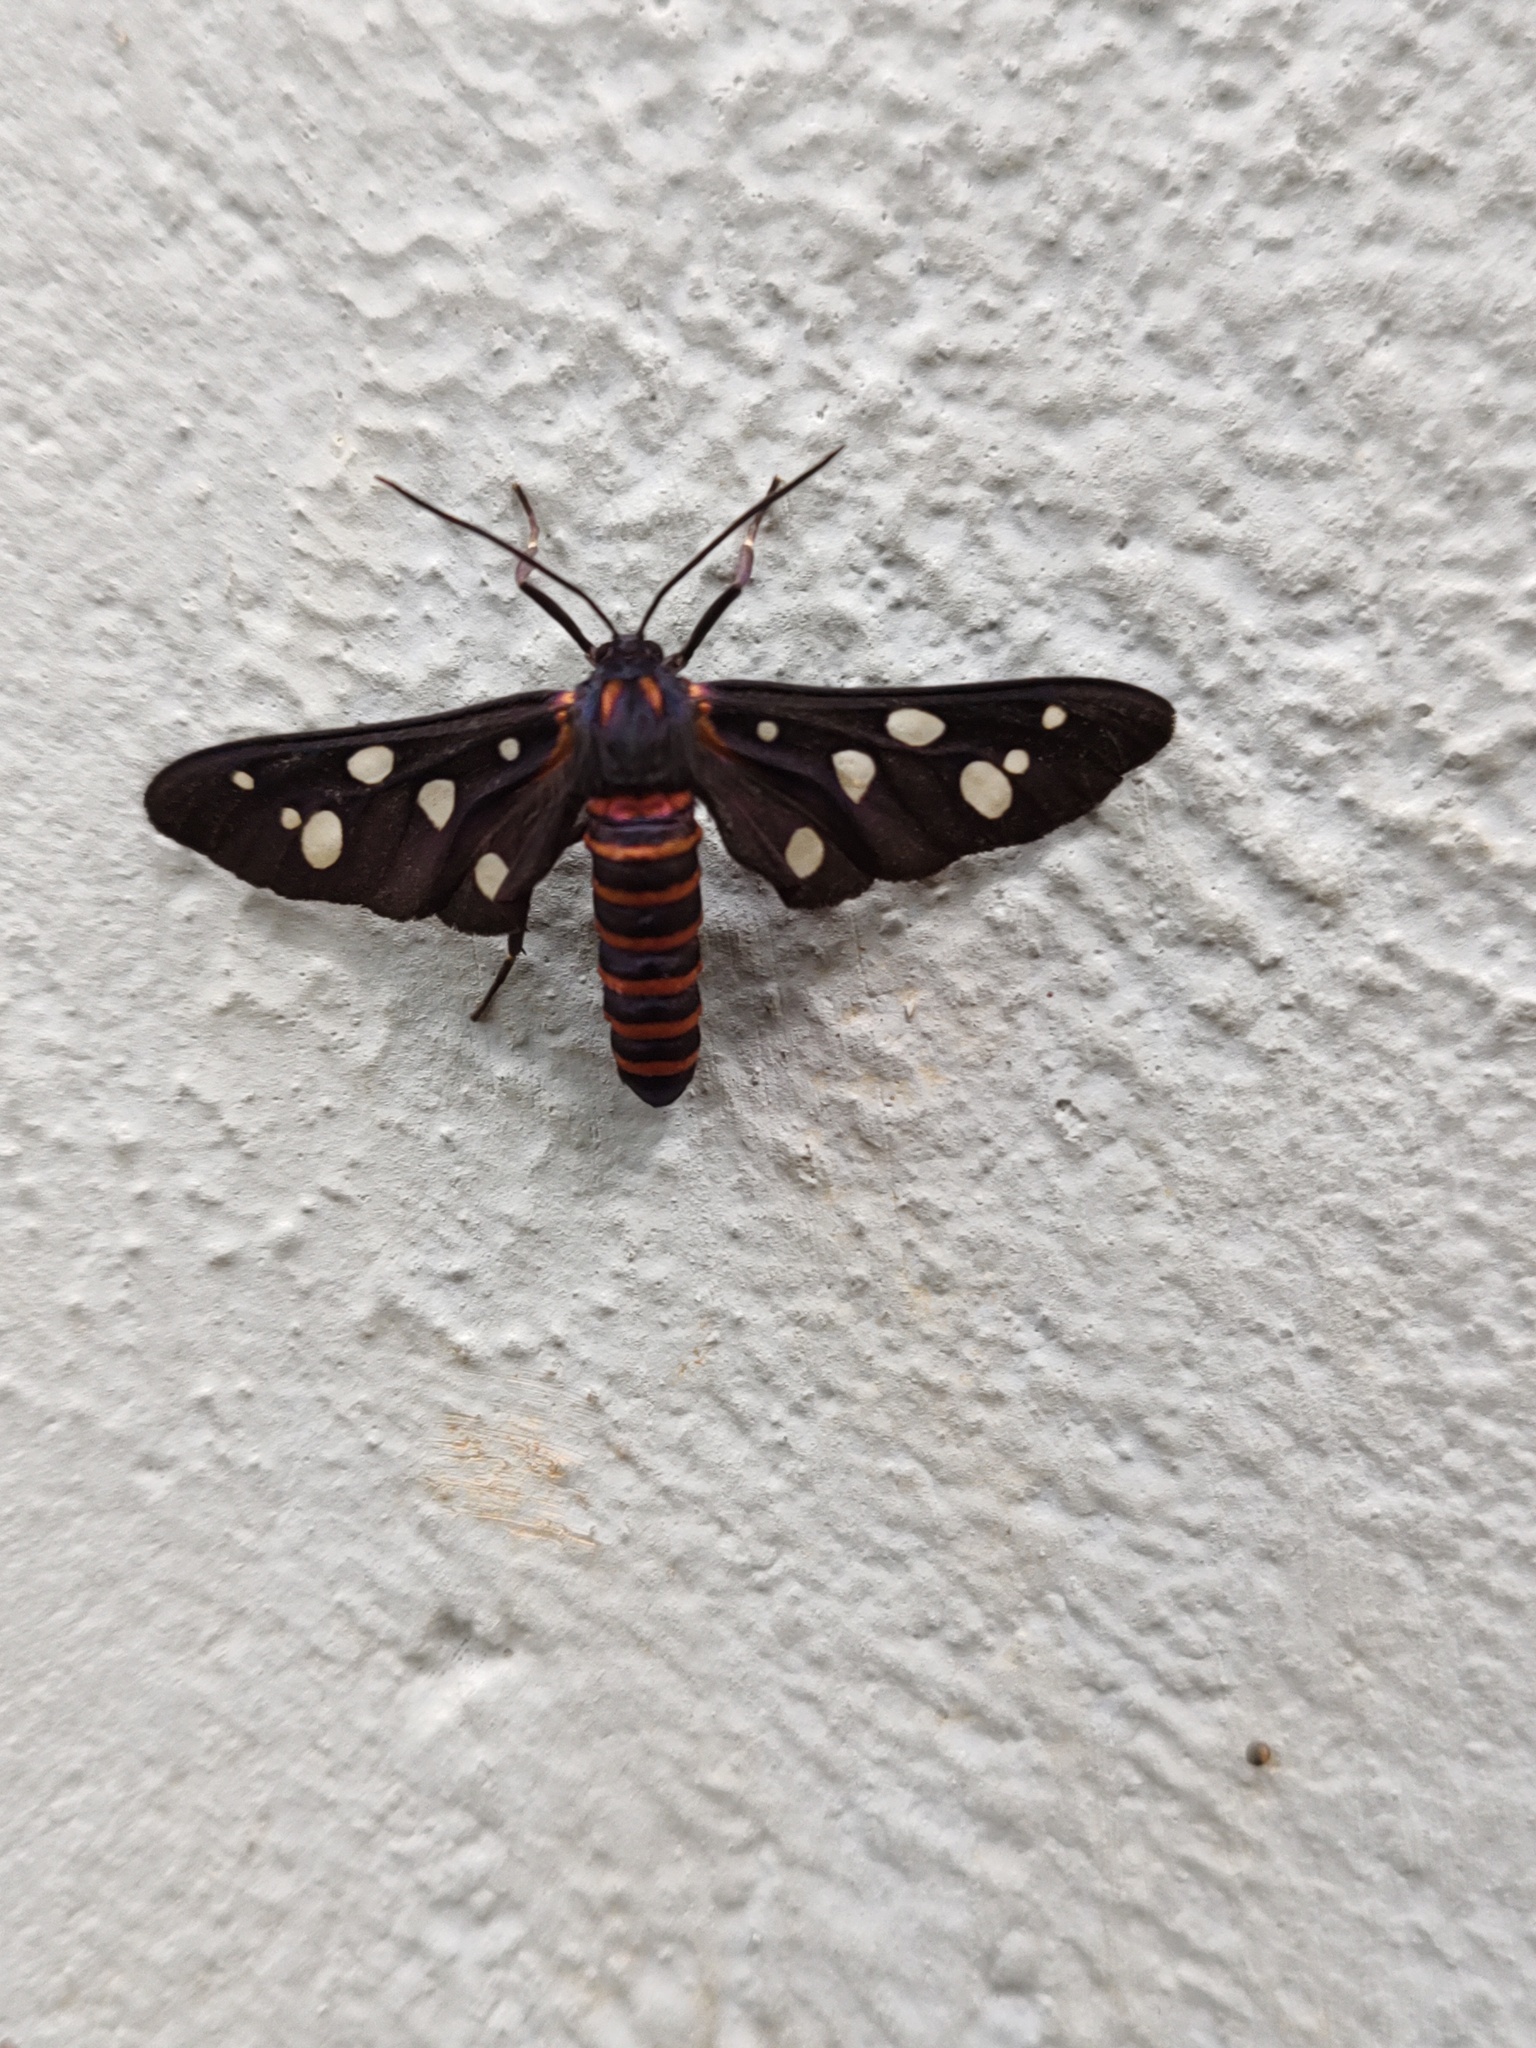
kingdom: Animalia
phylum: Arthropoda
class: Insecta
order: Lepidoptera
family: Erebidae
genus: Amata
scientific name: Amata passalis
